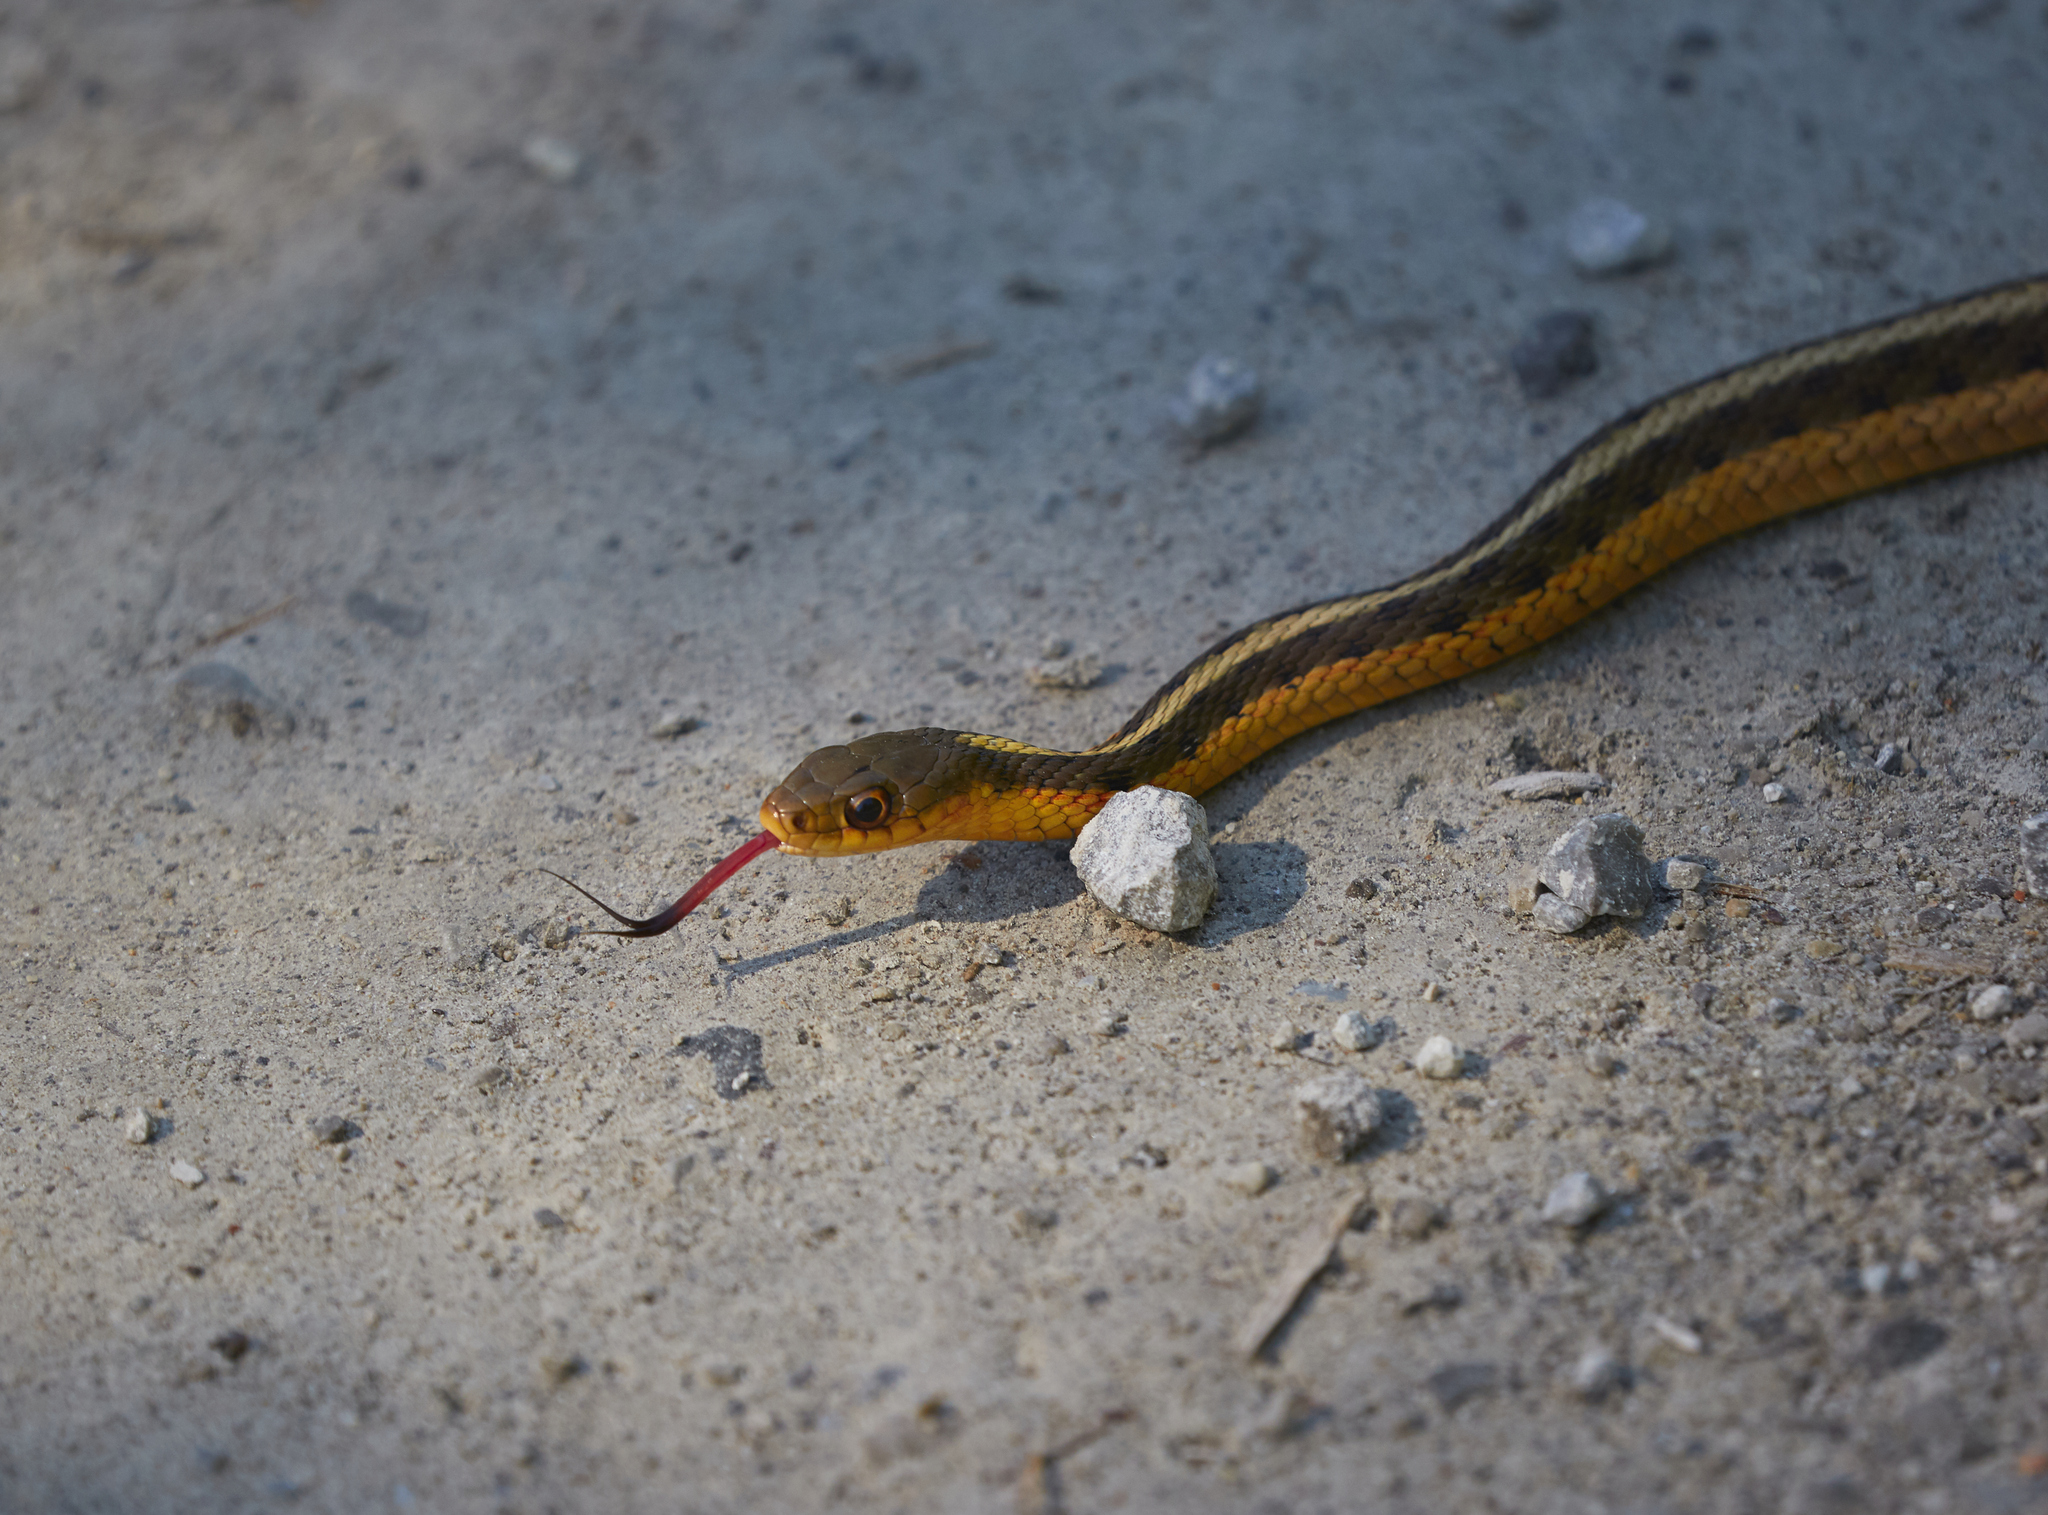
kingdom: Animalia
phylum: Chordata
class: Squamata
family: Colubridae
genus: Thamnophis
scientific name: Thamnophis sirtalis
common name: Common garter snake
